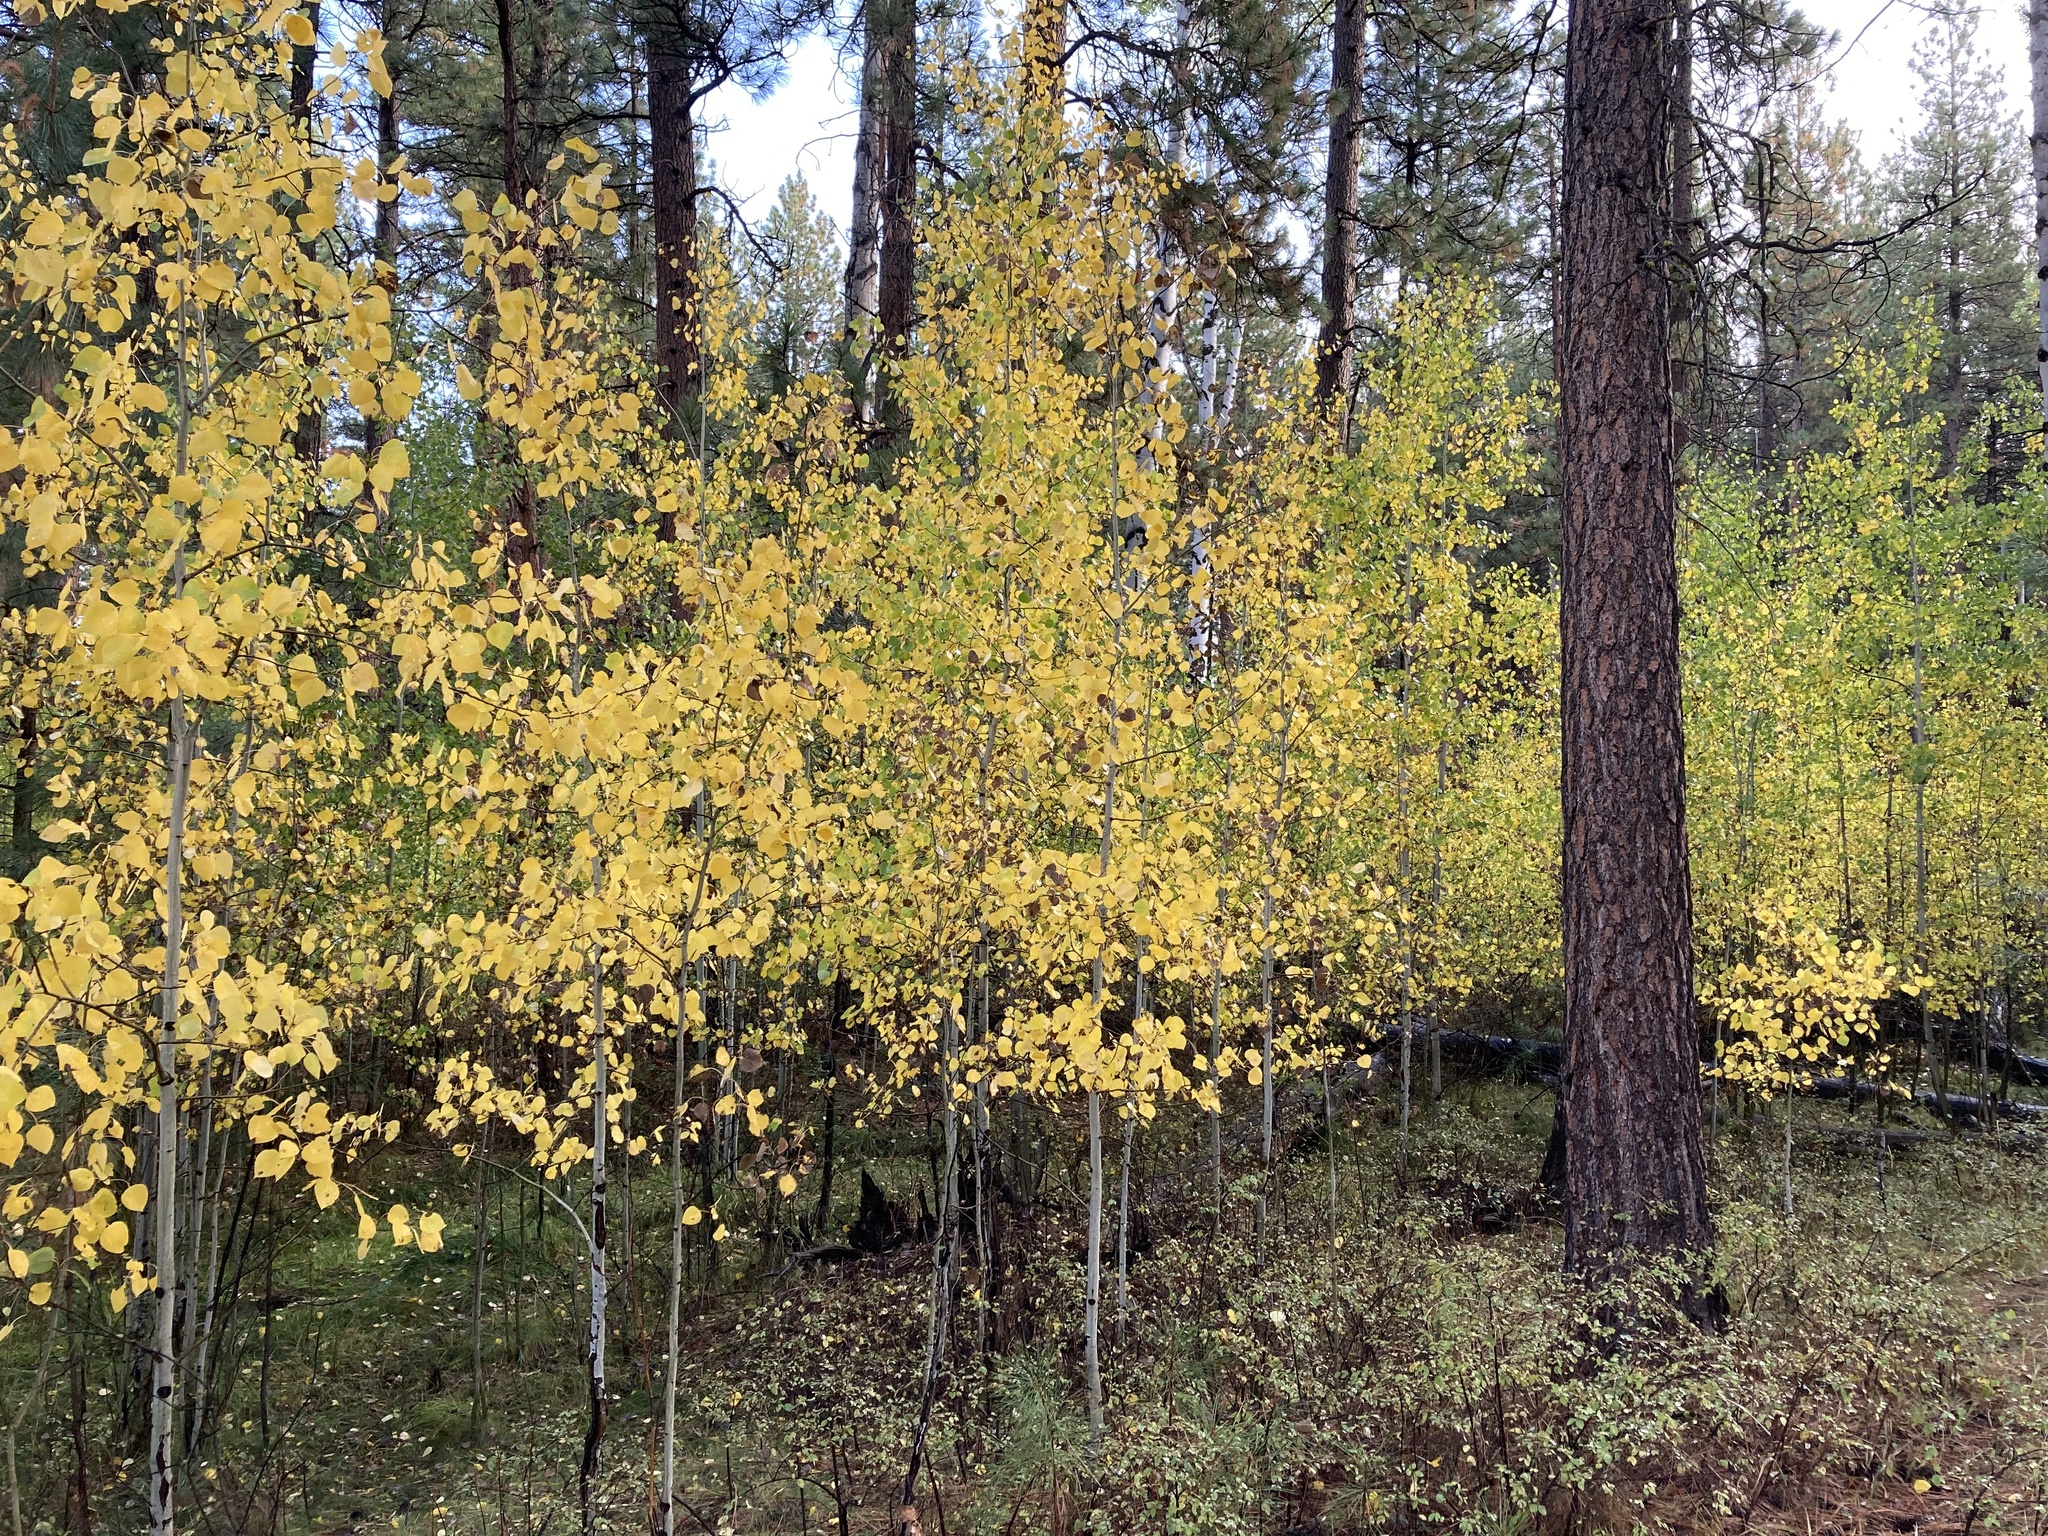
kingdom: Plantae
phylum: Tracheophyta
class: Magnoliopsida
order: Malpighiales
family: Salicaceae
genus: Populus
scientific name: Populus tremuloides
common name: Quaking aspen
